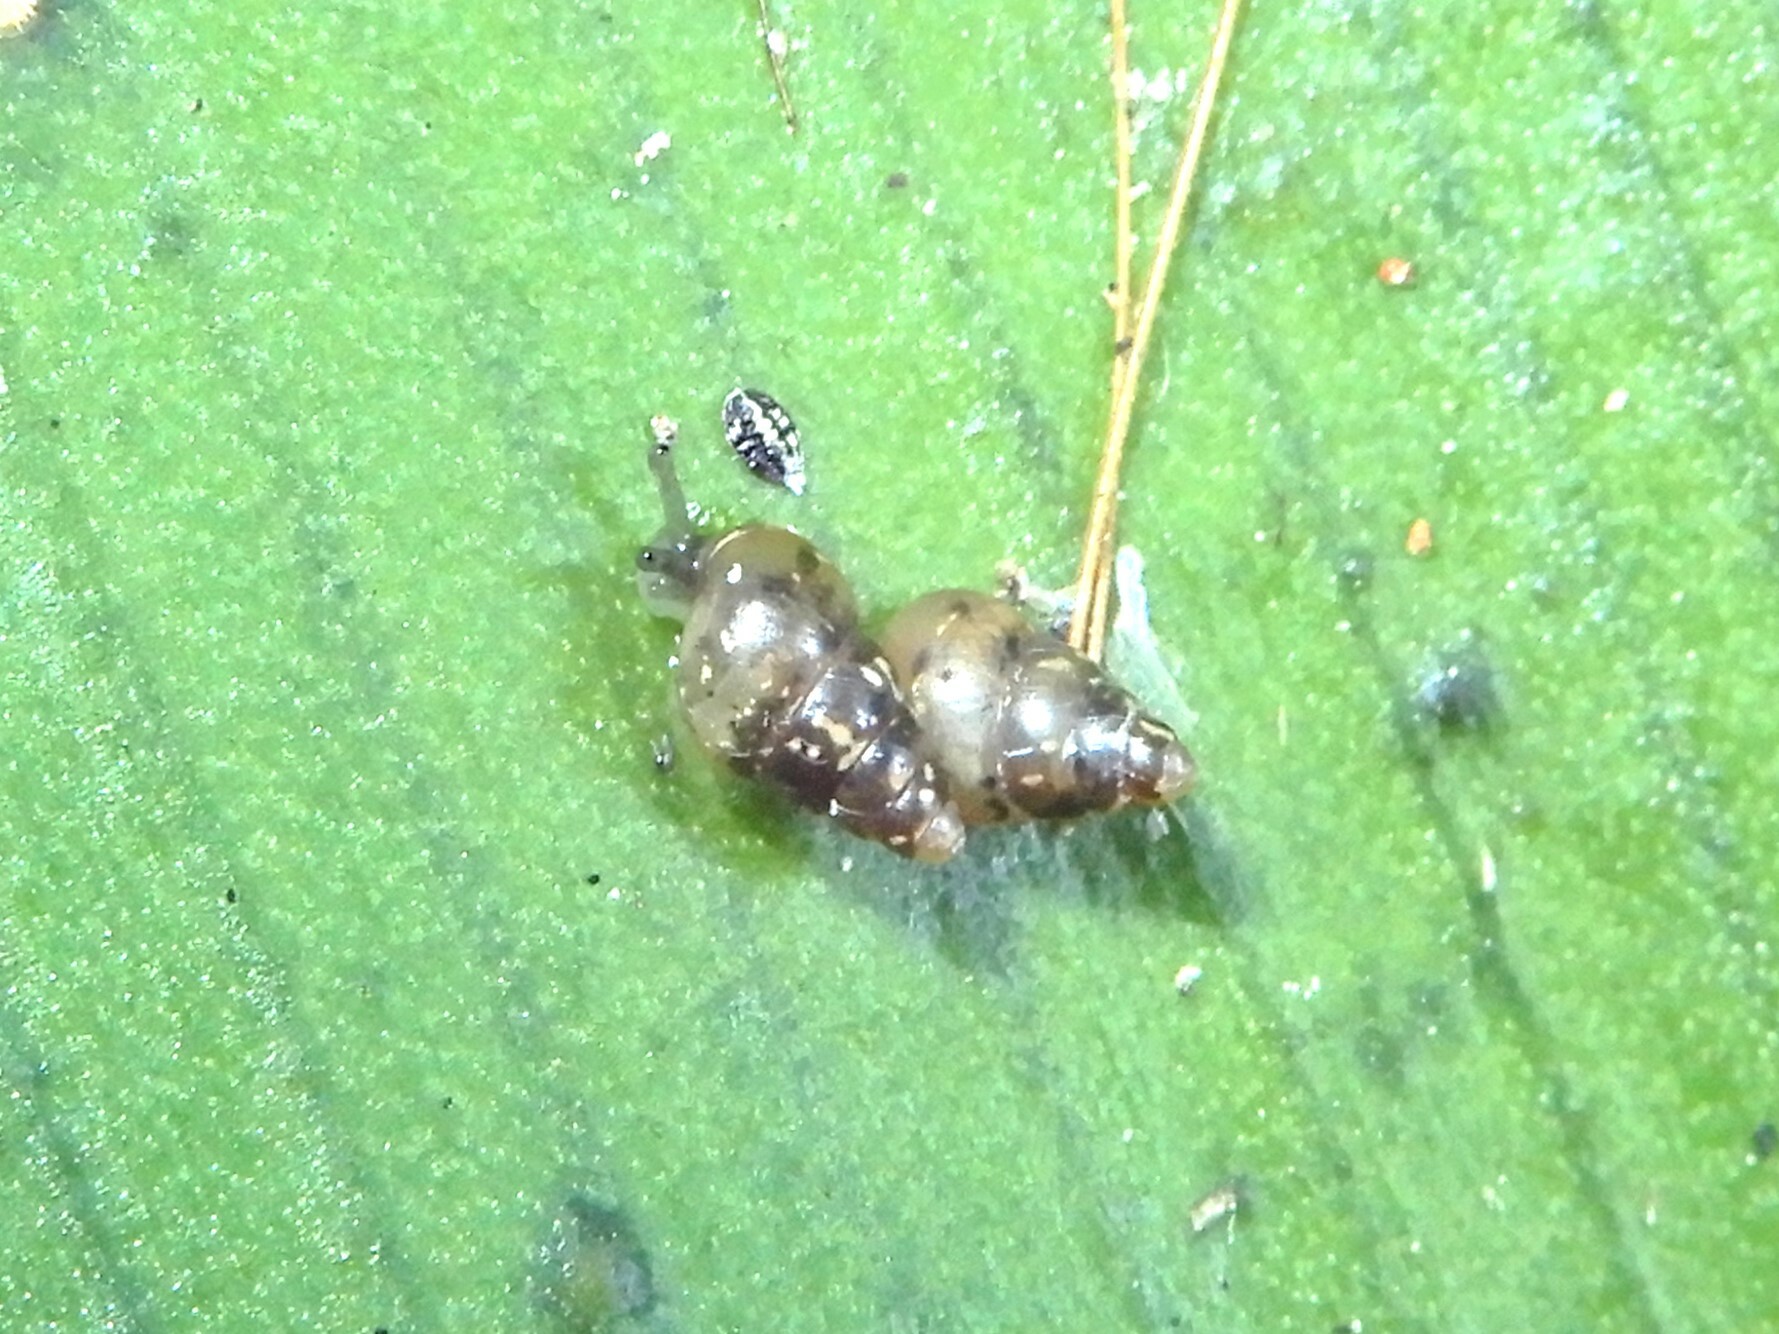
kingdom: Animalia
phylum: Mollusca
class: Gastropoda
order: Stylommatophora
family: Achatinellidae
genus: Tornatellides
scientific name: Tornatellides subperforatus
